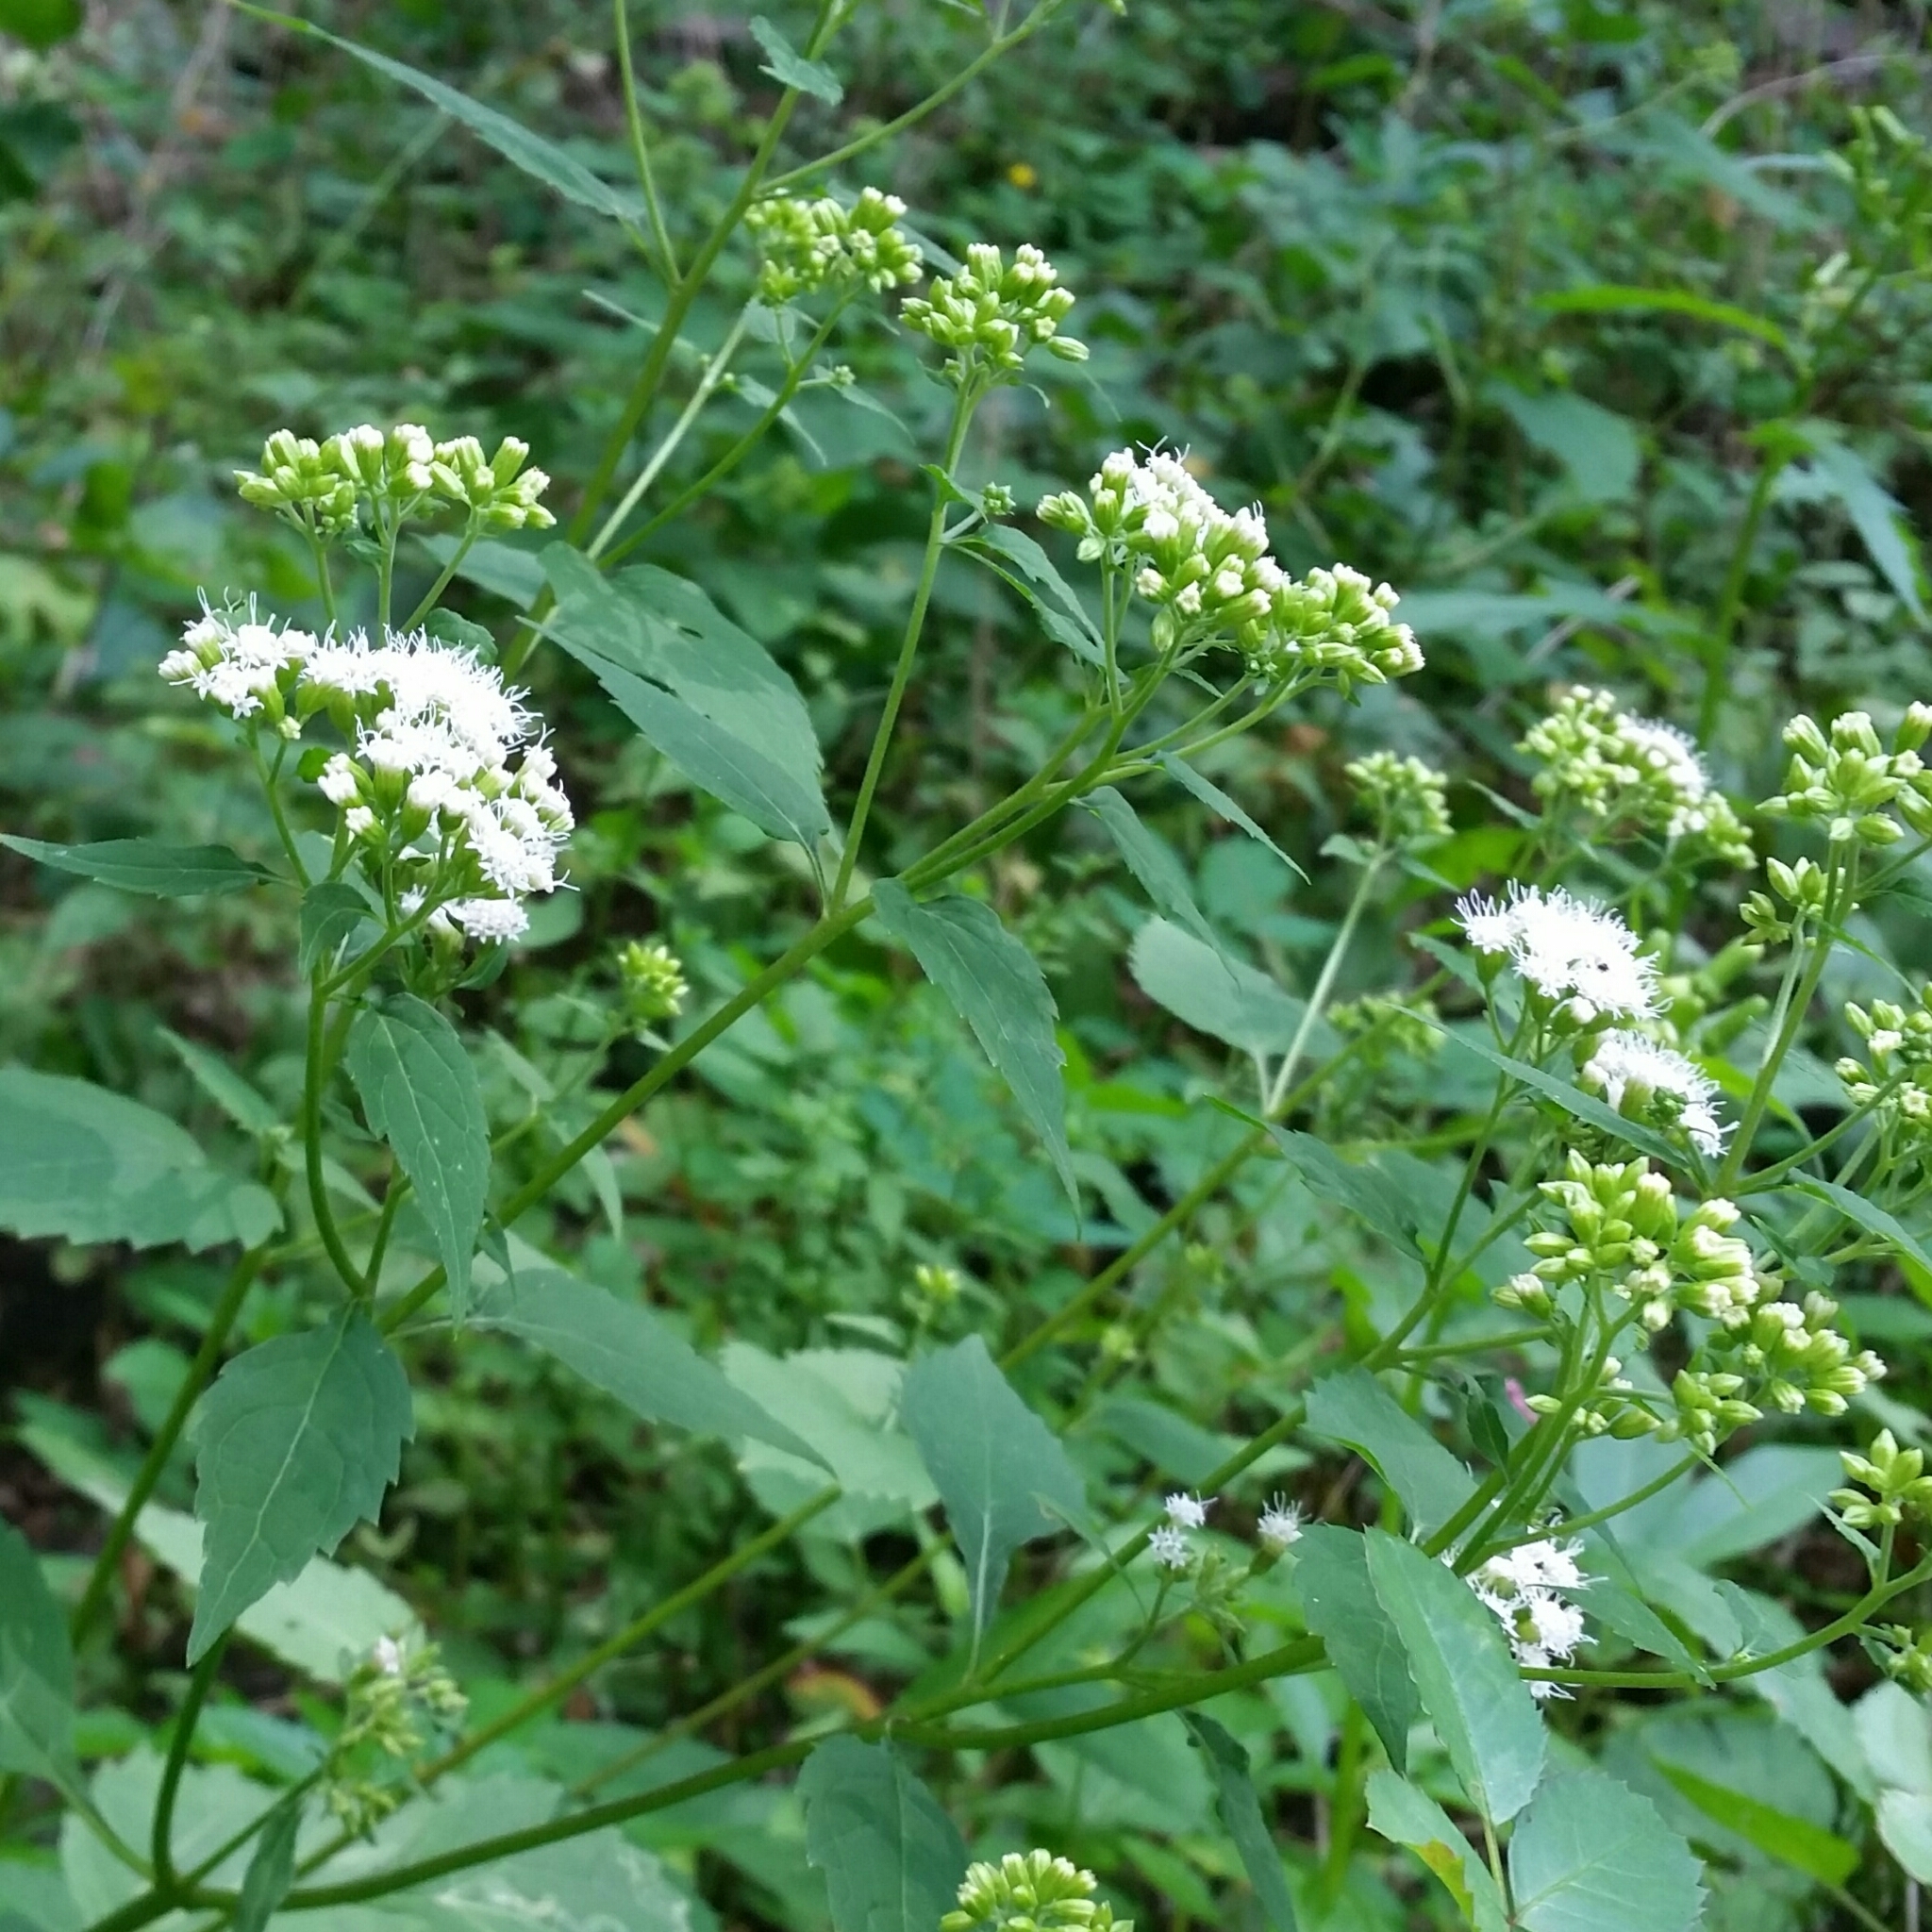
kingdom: Plantae
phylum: Tracheophyta
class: Magnoliopsida
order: Asterales
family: Asteraceae
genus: Ageratina
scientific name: Ageratina altissima
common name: White snakeroot
